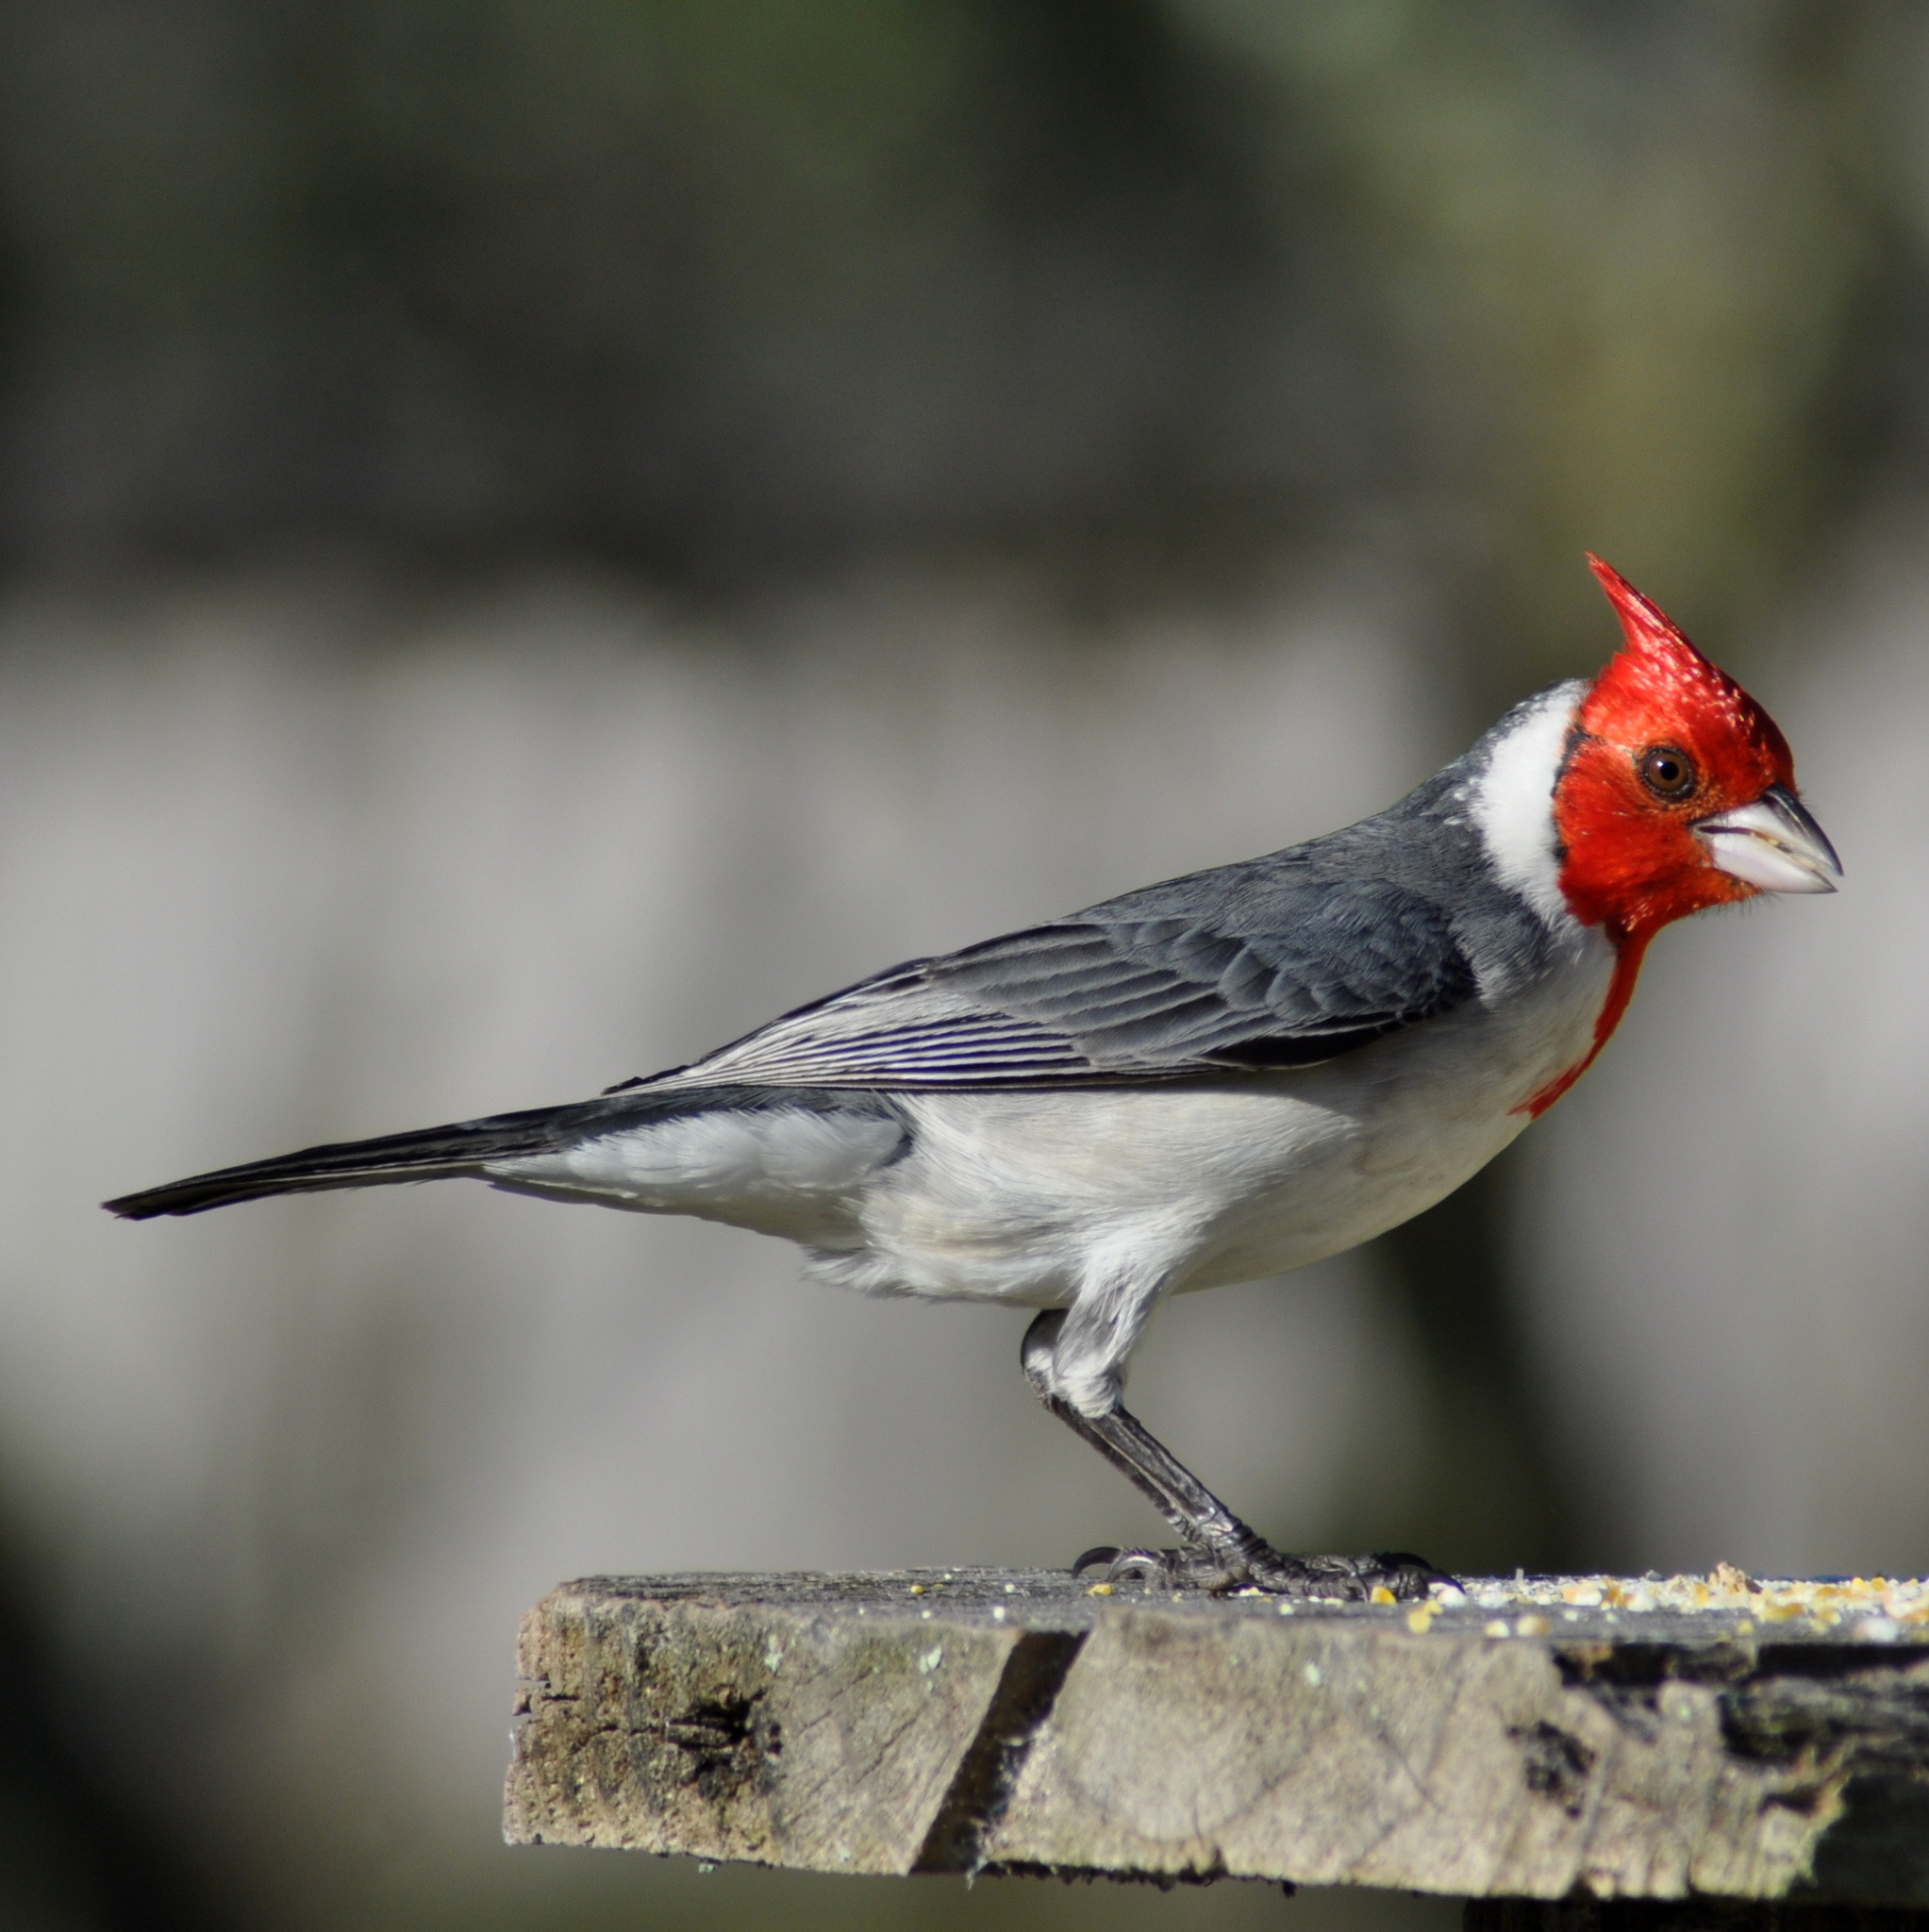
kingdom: Animalia
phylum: Chordata
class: Aves
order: Passeriformes
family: Thraupidae
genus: Paroaria
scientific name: Paroaria coronata
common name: Red-crested cardinal
